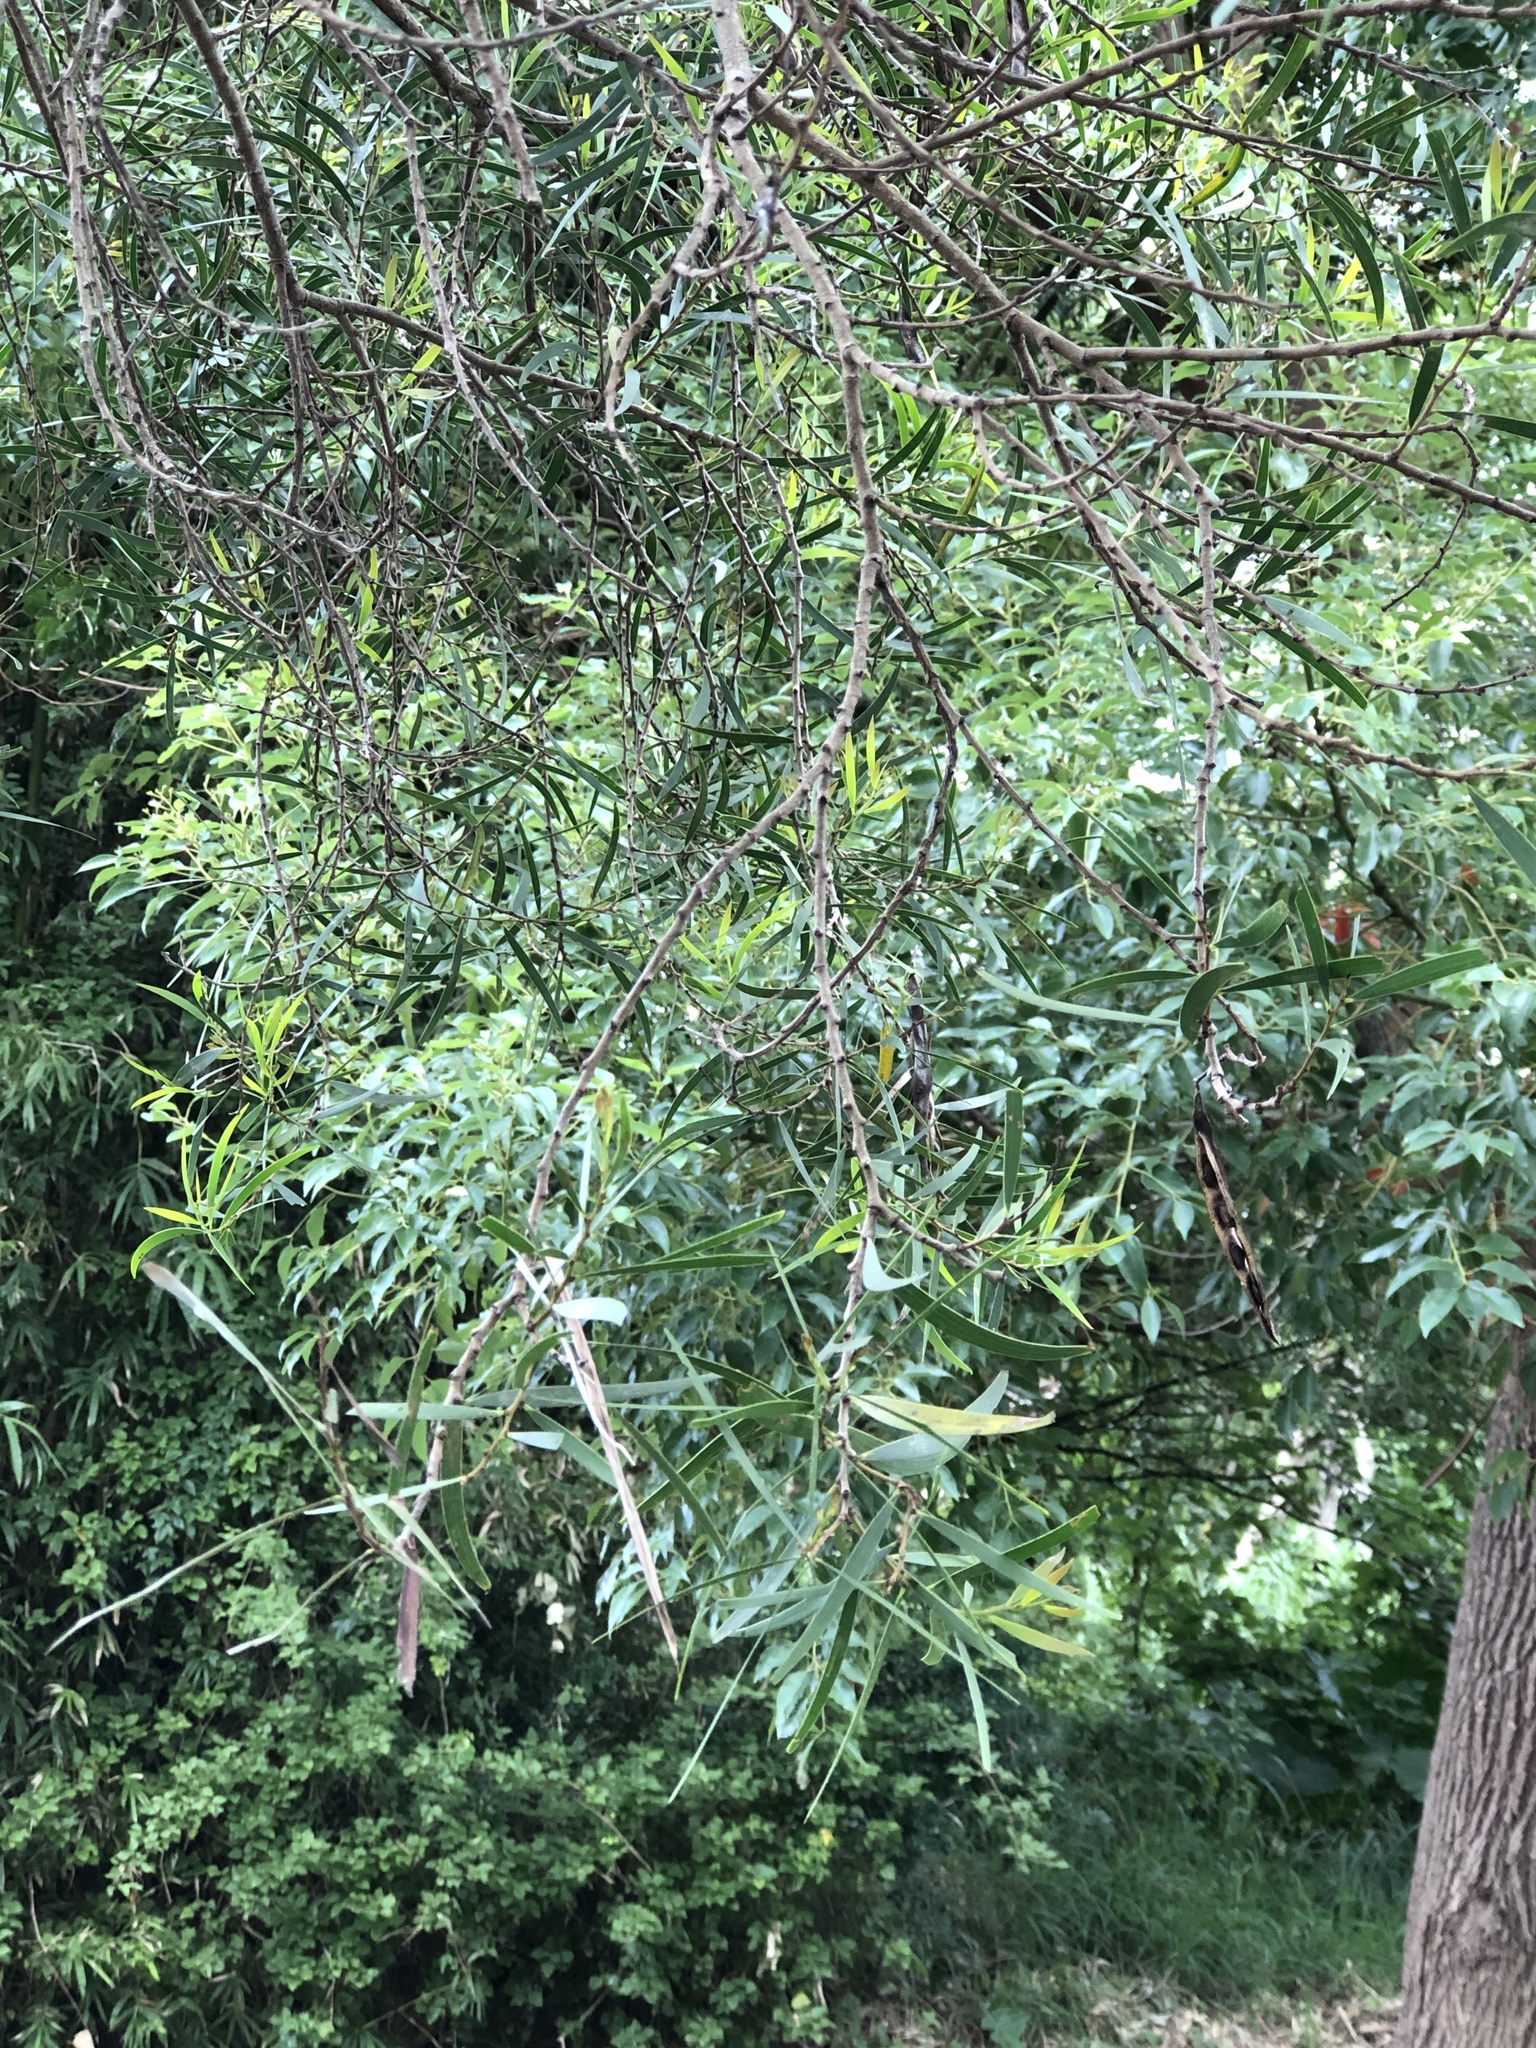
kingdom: Plantae
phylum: Tracheophyta
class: Magnoliopsida
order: Fabales
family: Fabaceae
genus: Acacia
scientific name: Acacia confusa
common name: Formosan koa
